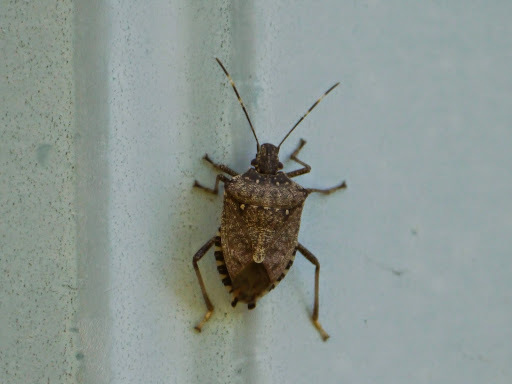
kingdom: Animalia
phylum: Arthropoda
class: Insecta
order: Hemiptera
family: Pentatomidae
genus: Halyomorpha
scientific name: Halyomorpha halys
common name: Brown marmorated stink bug
